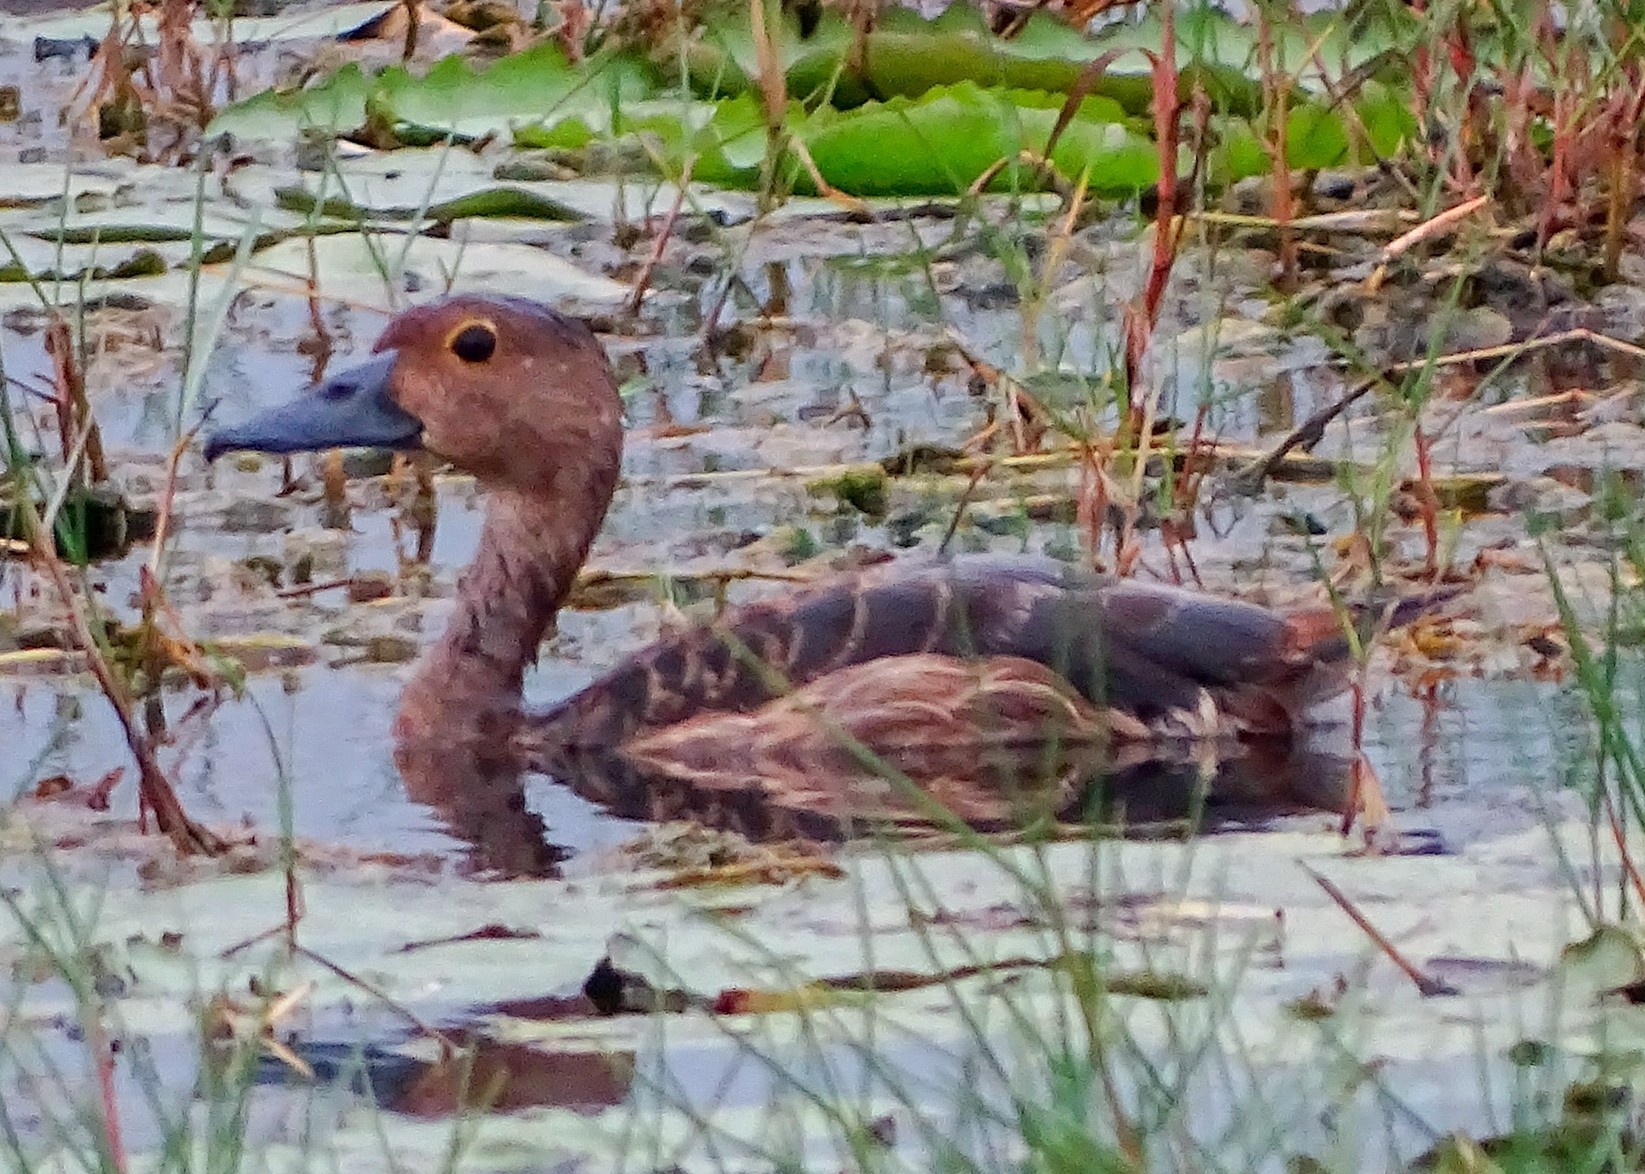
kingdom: Animalia
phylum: Chordata
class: Aves
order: Anseriformes
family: Anatidae
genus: Dendrocygna
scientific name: Dendrocygna javanica
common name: Lesser whistling-duck
